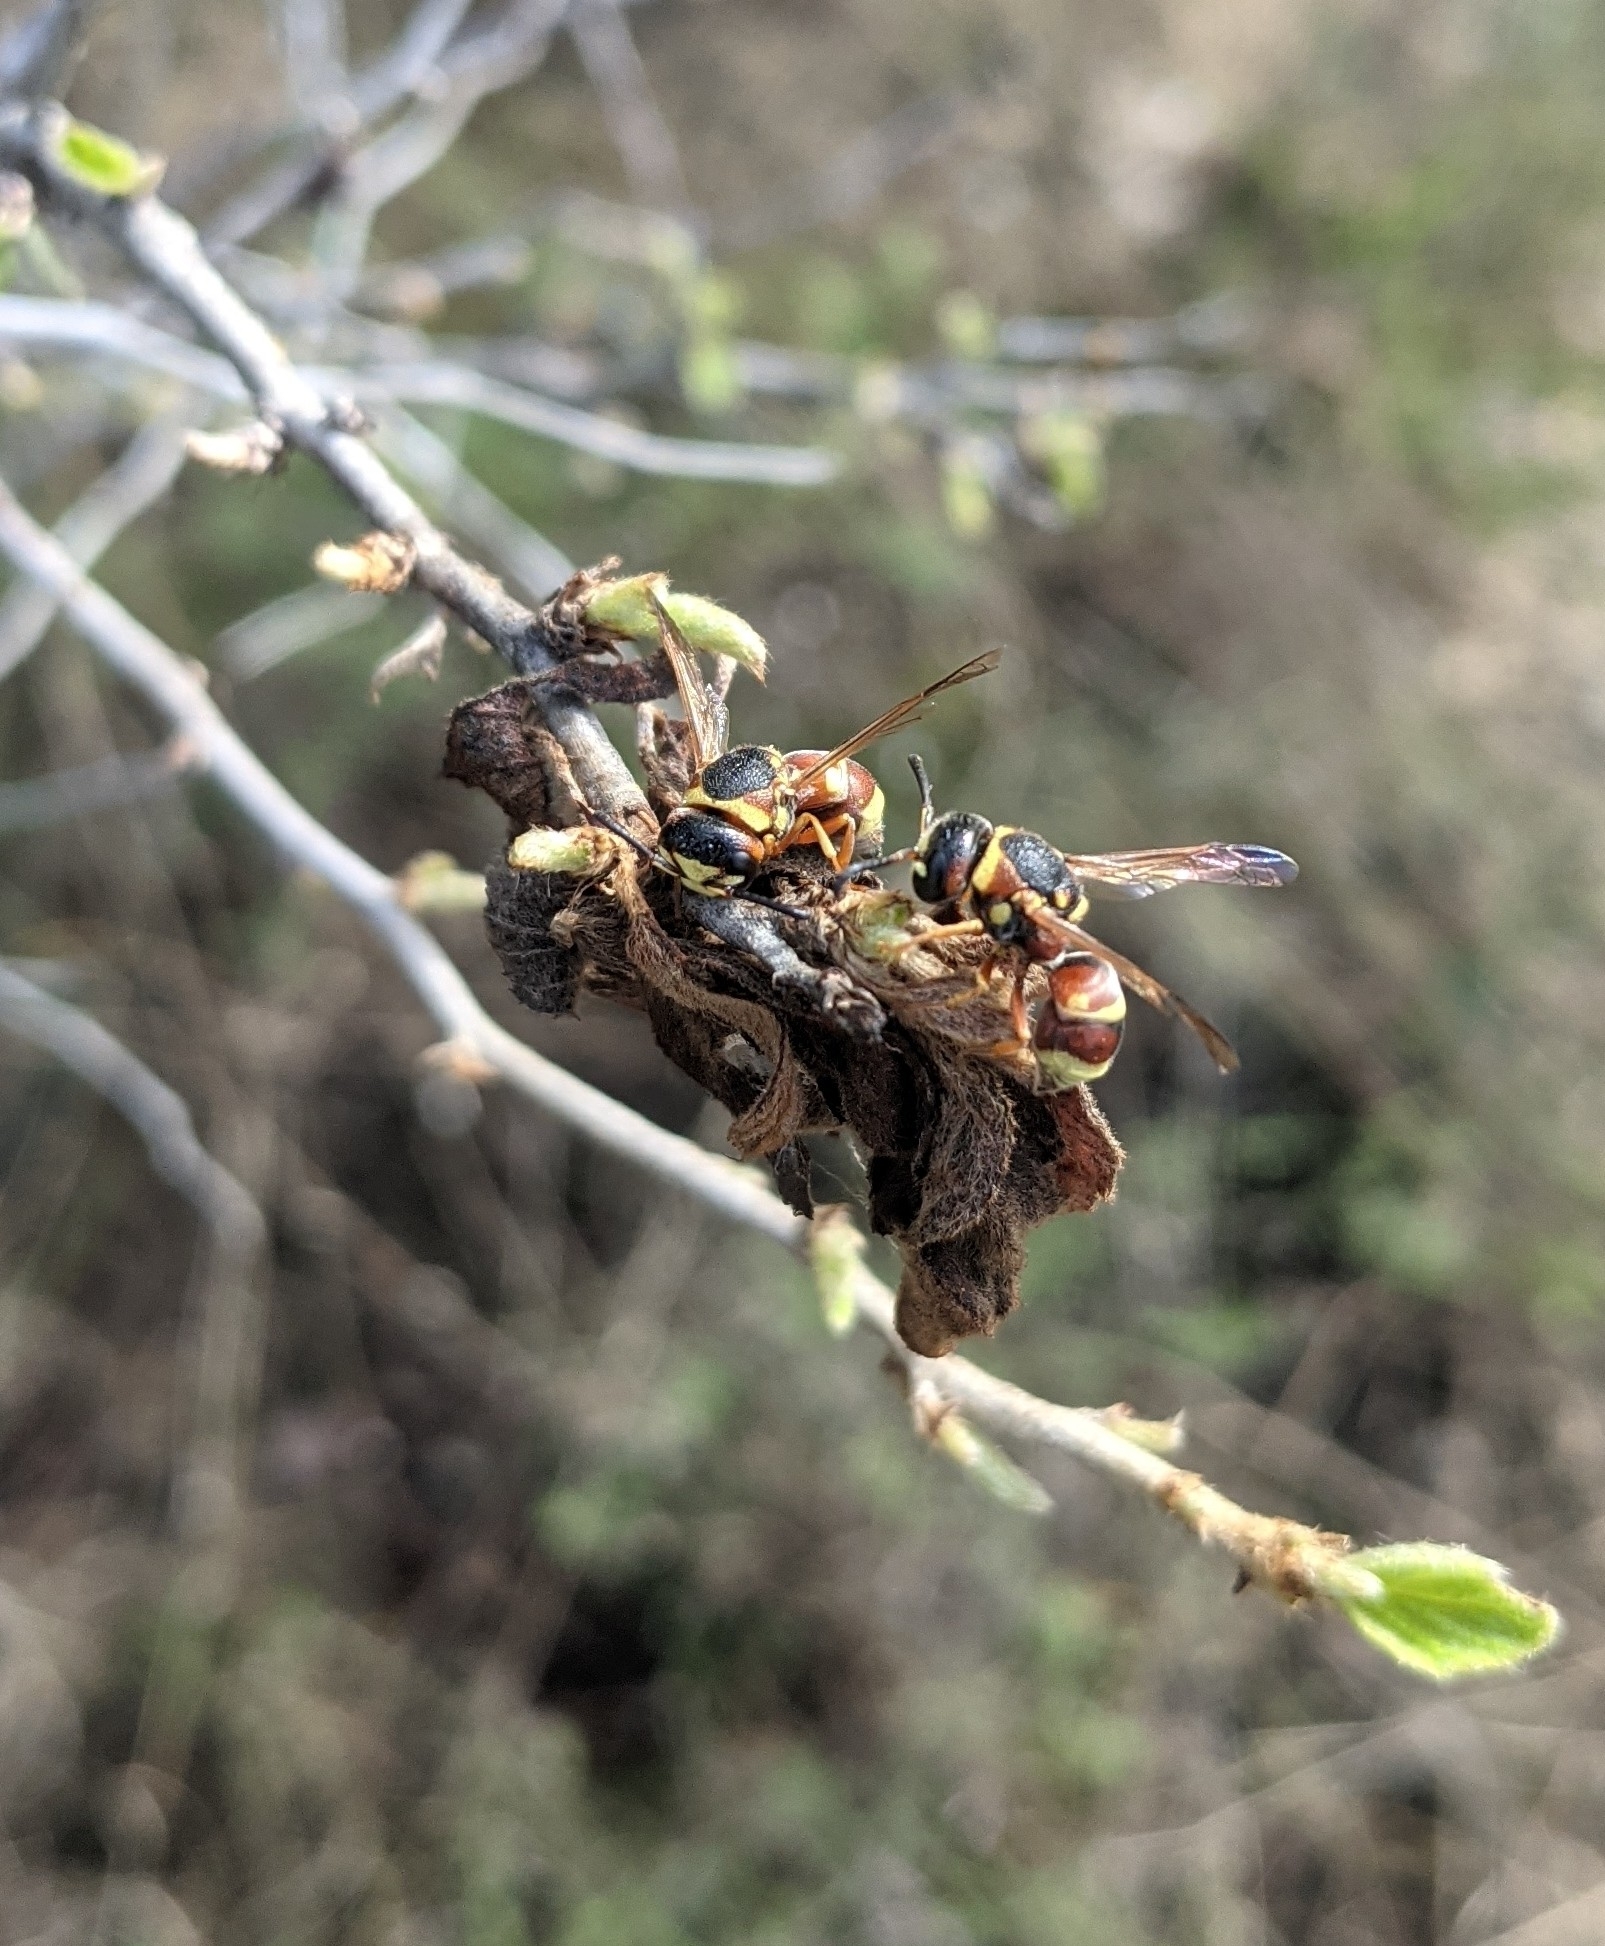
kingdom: Animalia
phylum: Arthropoda
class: Insecta
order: Hymenoptera
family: Eumenidae
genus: Euodynerus
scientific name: Euodynerus annulatus
